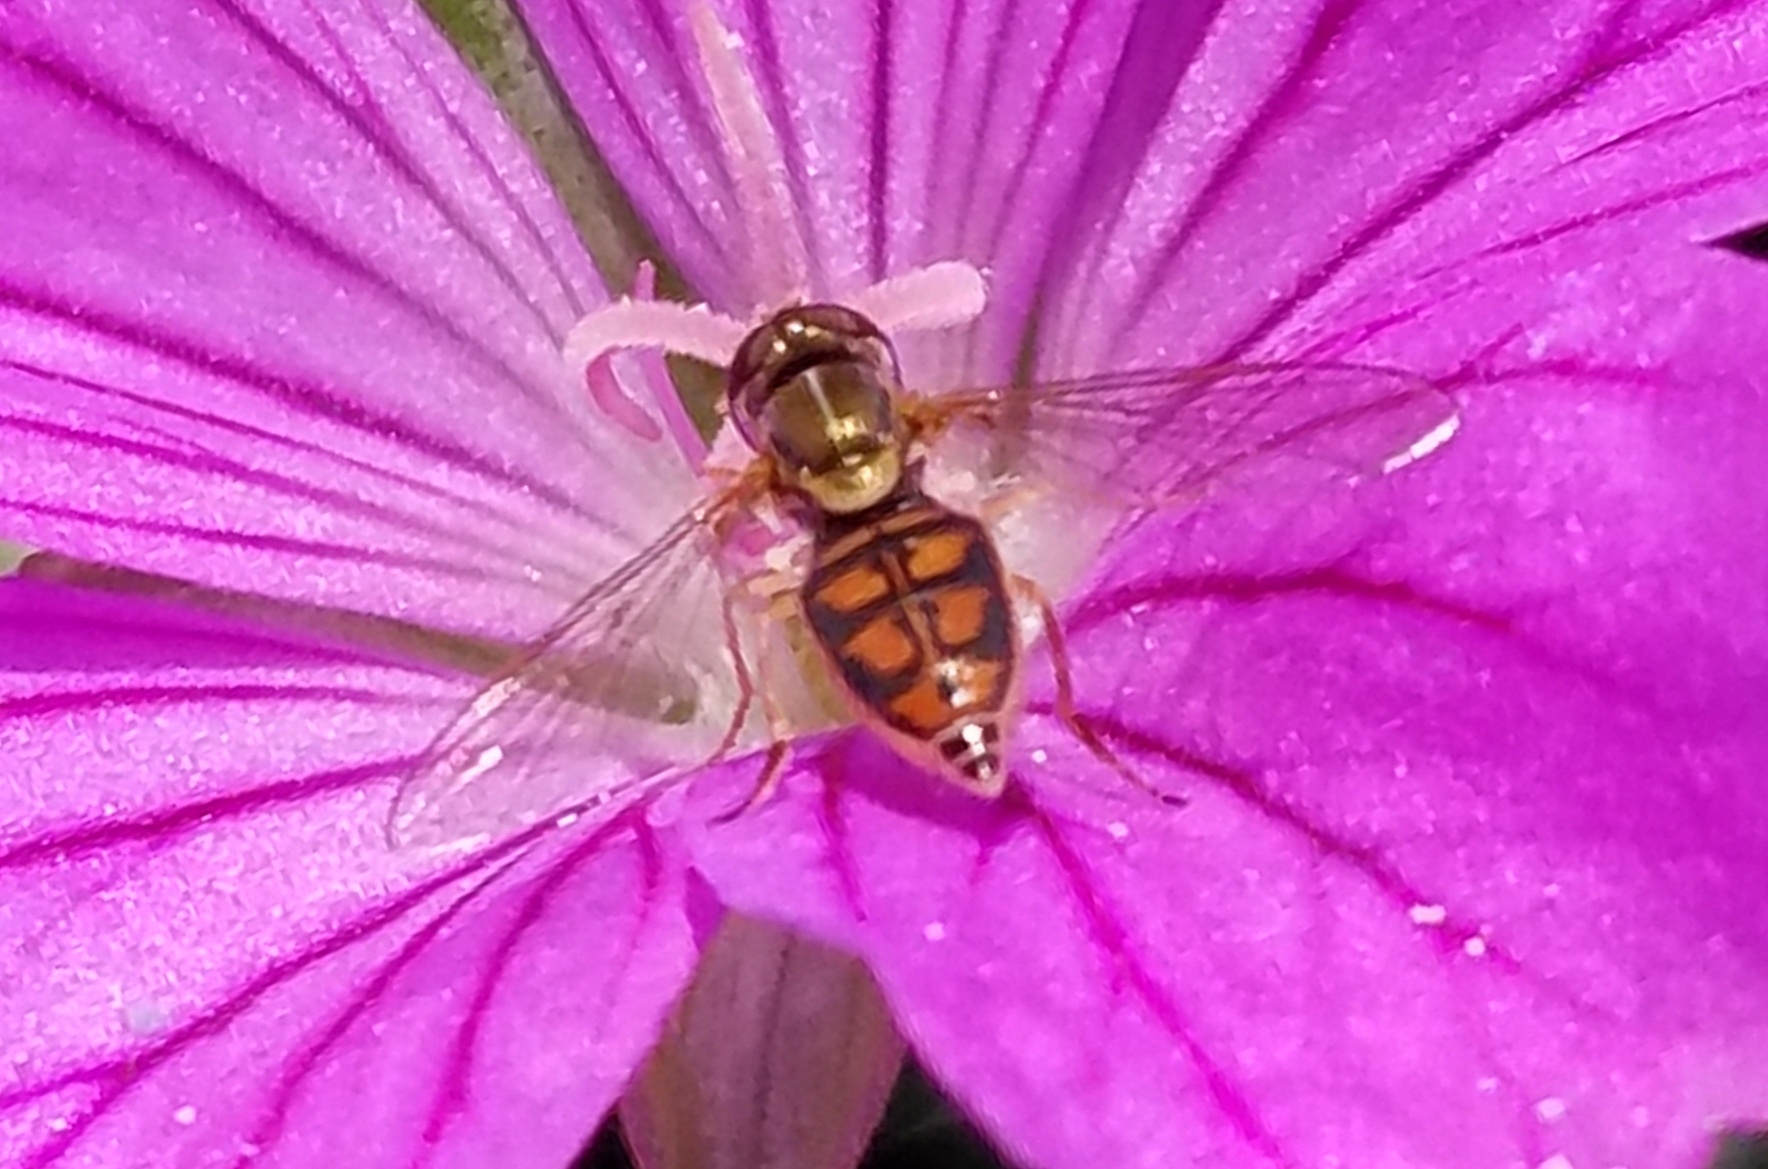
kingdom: Animalia
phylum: Arthropoda
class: Insecta
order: Diptera
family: Syrphidae
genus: Toxomerus
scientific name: Toxomerus marginatus
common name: Syrphid fly
